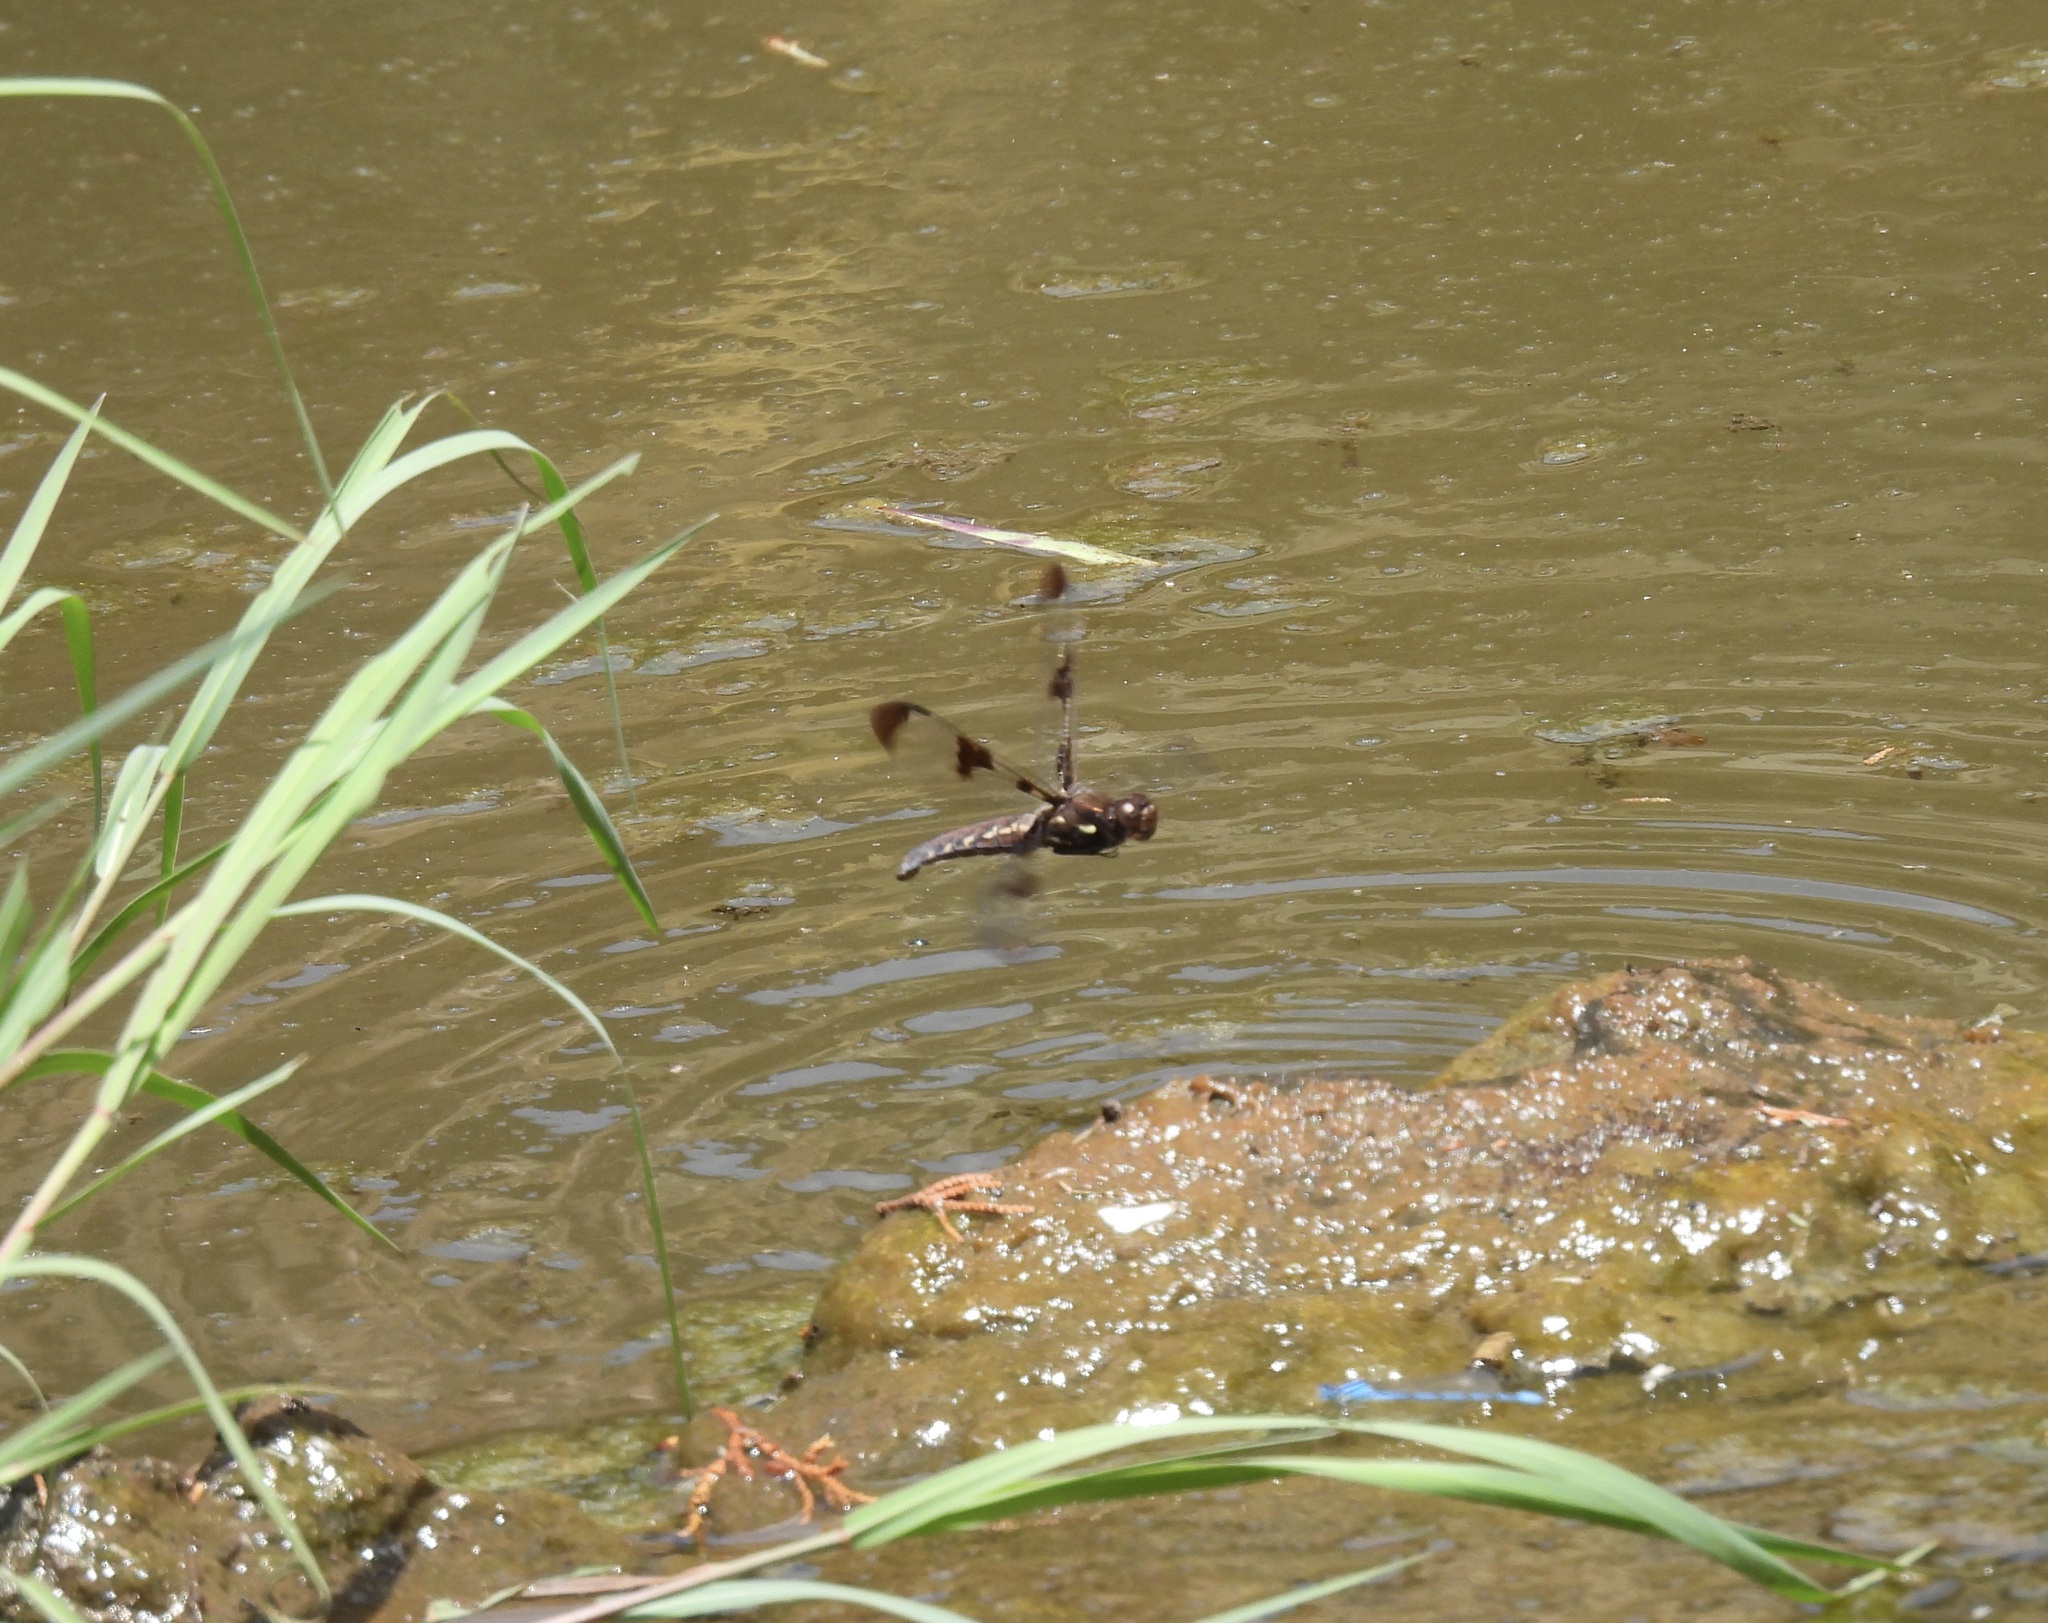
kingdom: Animalia
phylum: Arthropoda
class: Insecta
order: Odonata
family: Libellulidae
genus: Plathemis
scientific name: Plathemis lydia
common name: Common whitetail
